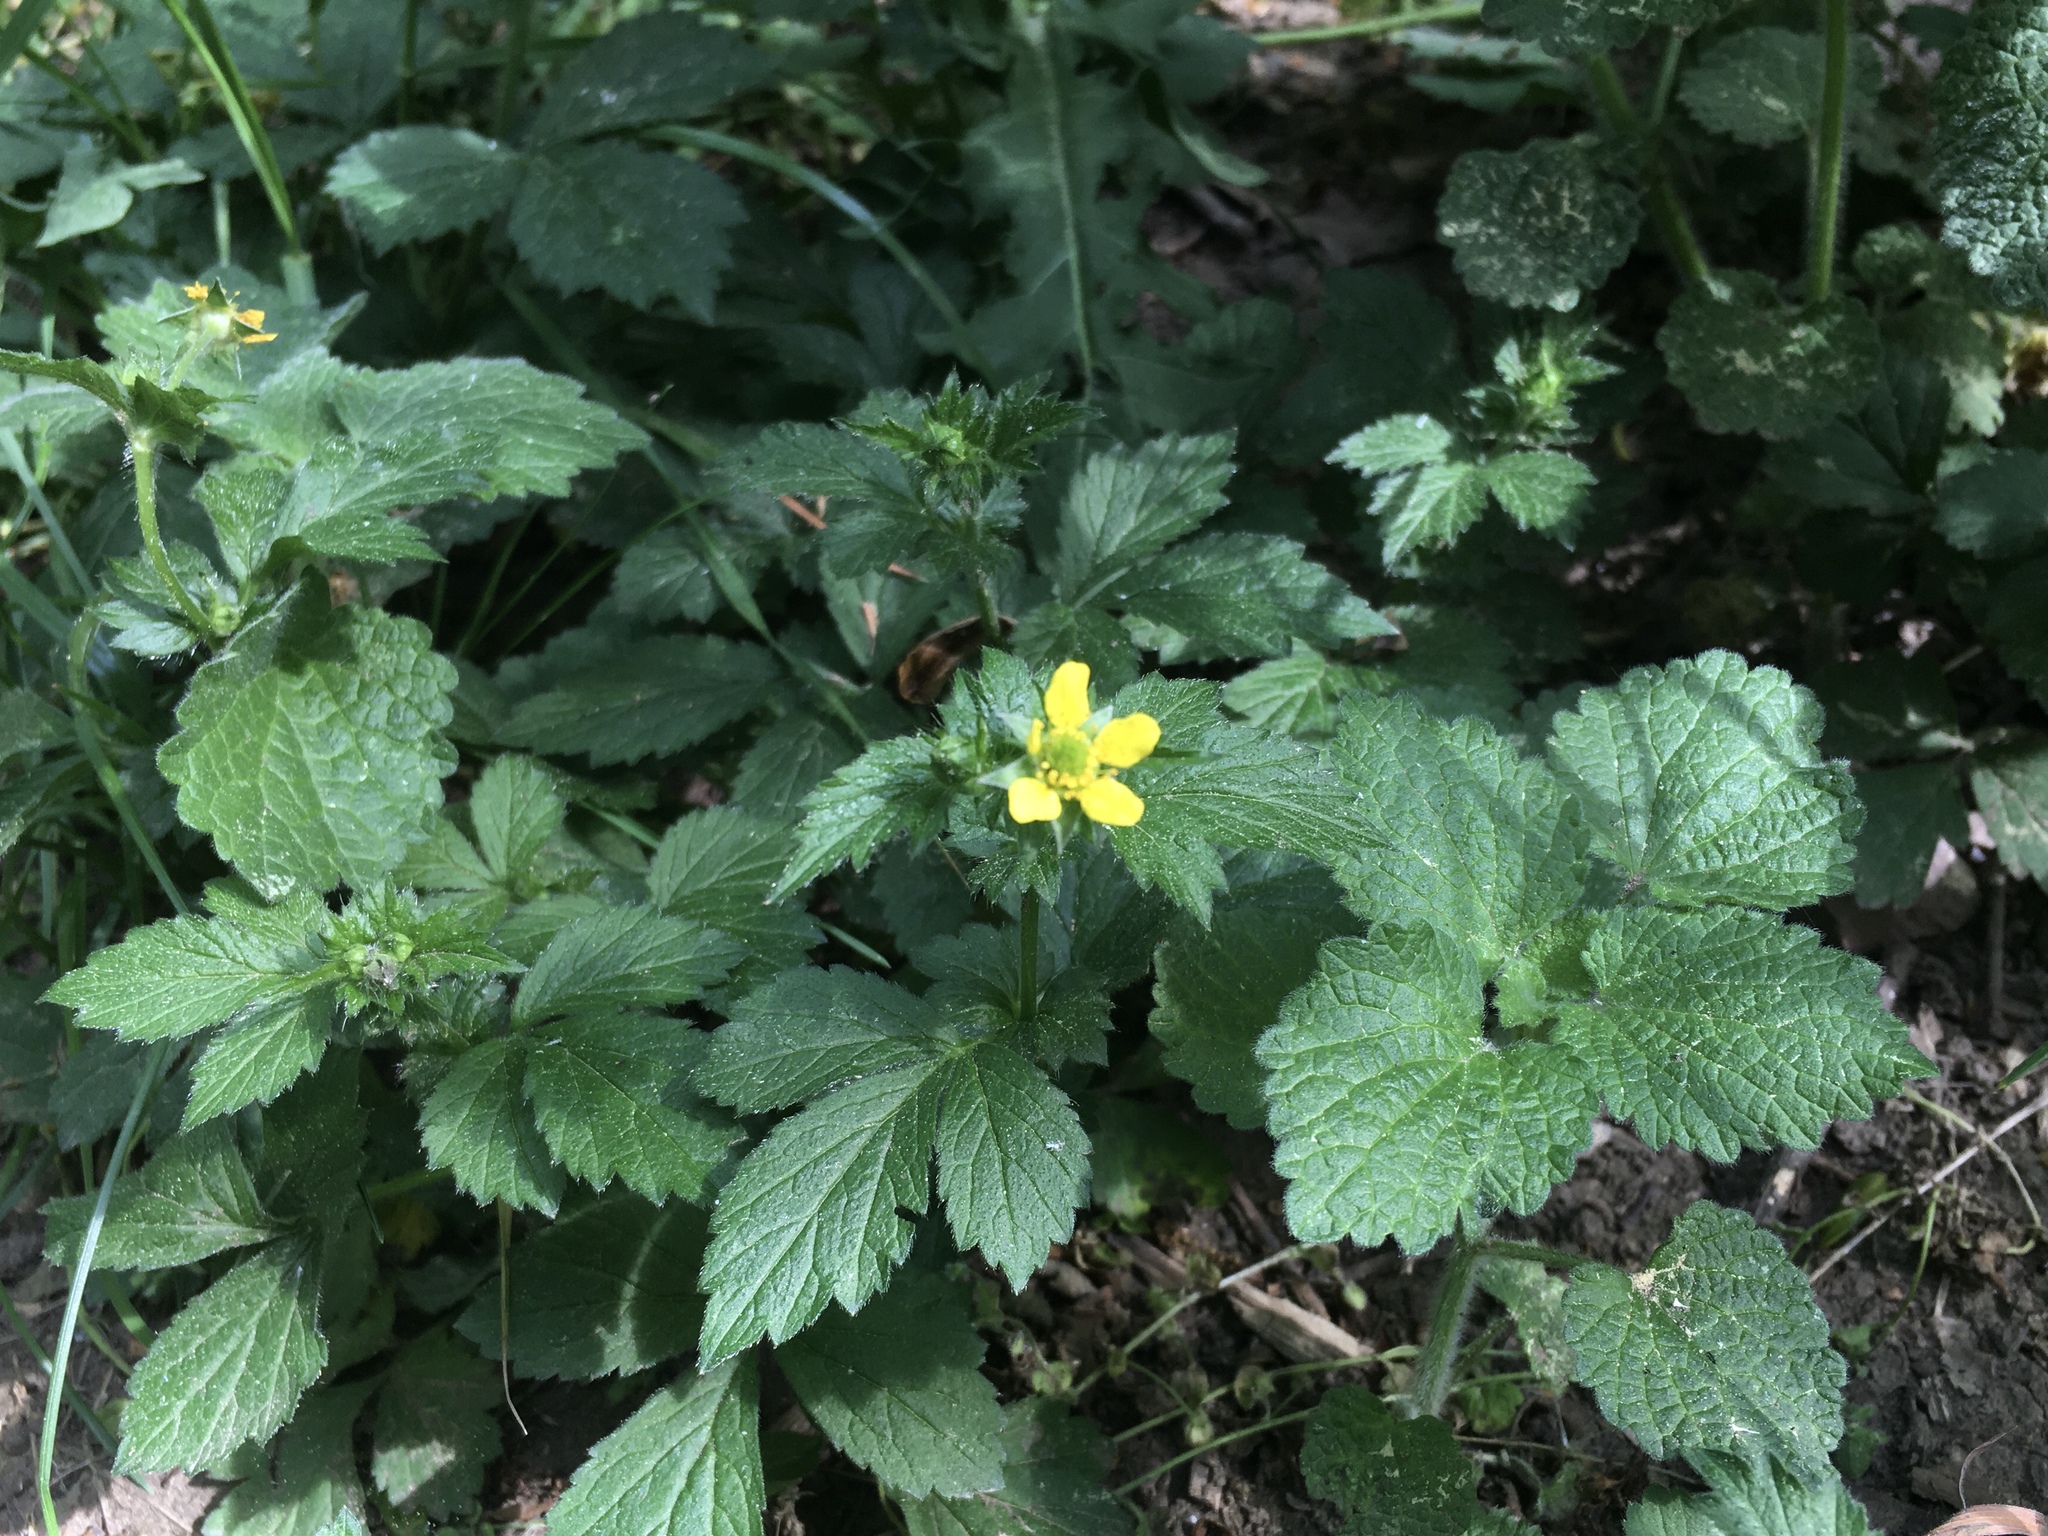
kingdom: Plantae
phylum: Tracheophyta
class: Magnoliopsida
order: Rosales
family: Rosaceae
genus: Geum
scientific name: Geum urbanum
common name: Wood avens
